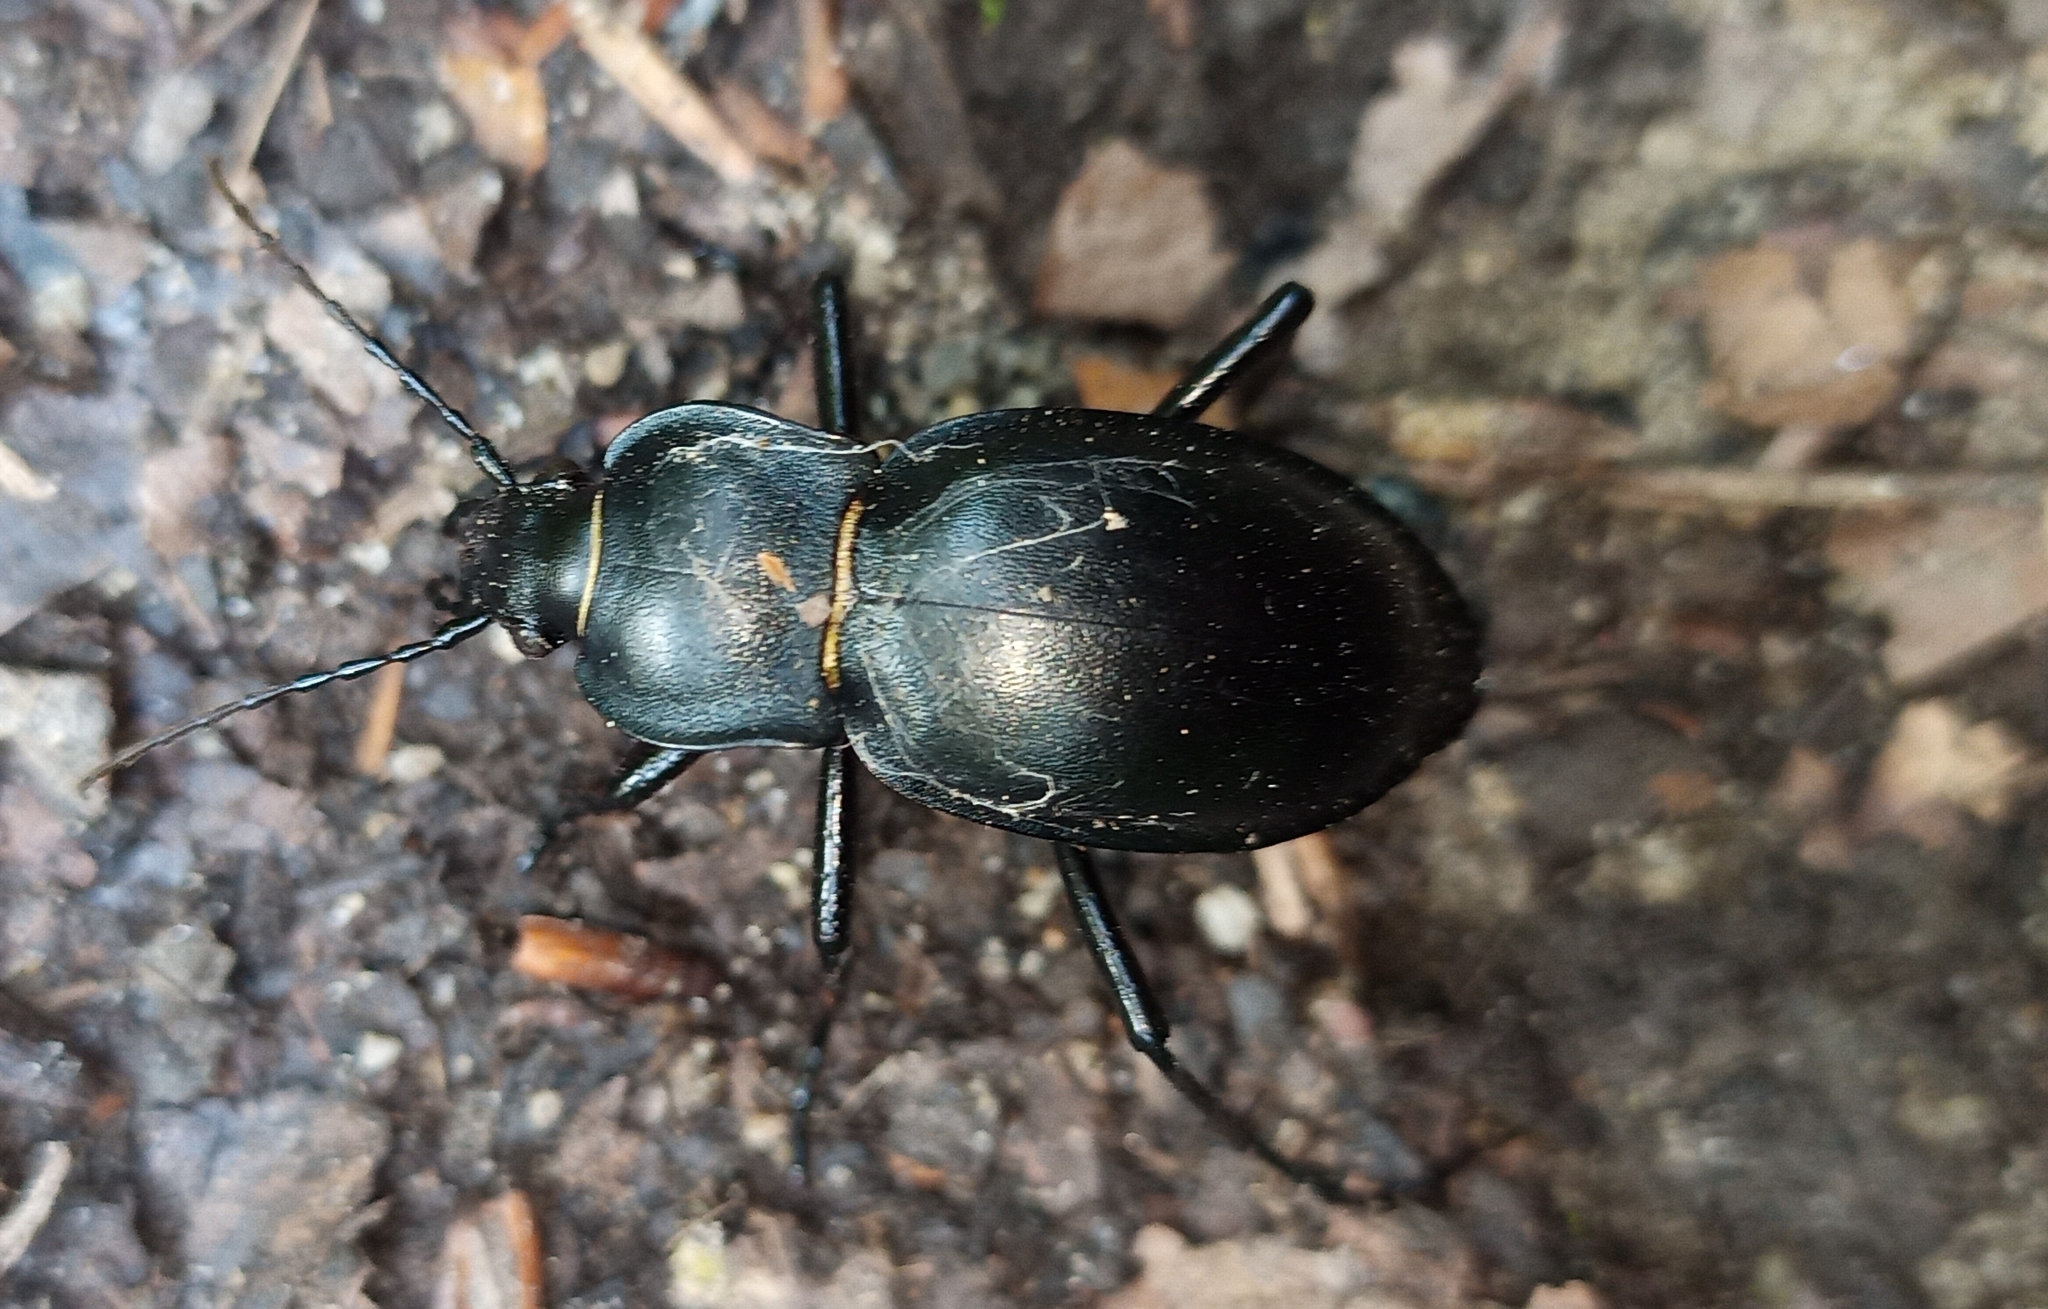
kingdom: Animalia
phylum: Arthropoda
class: Insecta
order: Coleoptera
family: Carabidae
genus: Carabus
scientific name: Carabus glabratus
